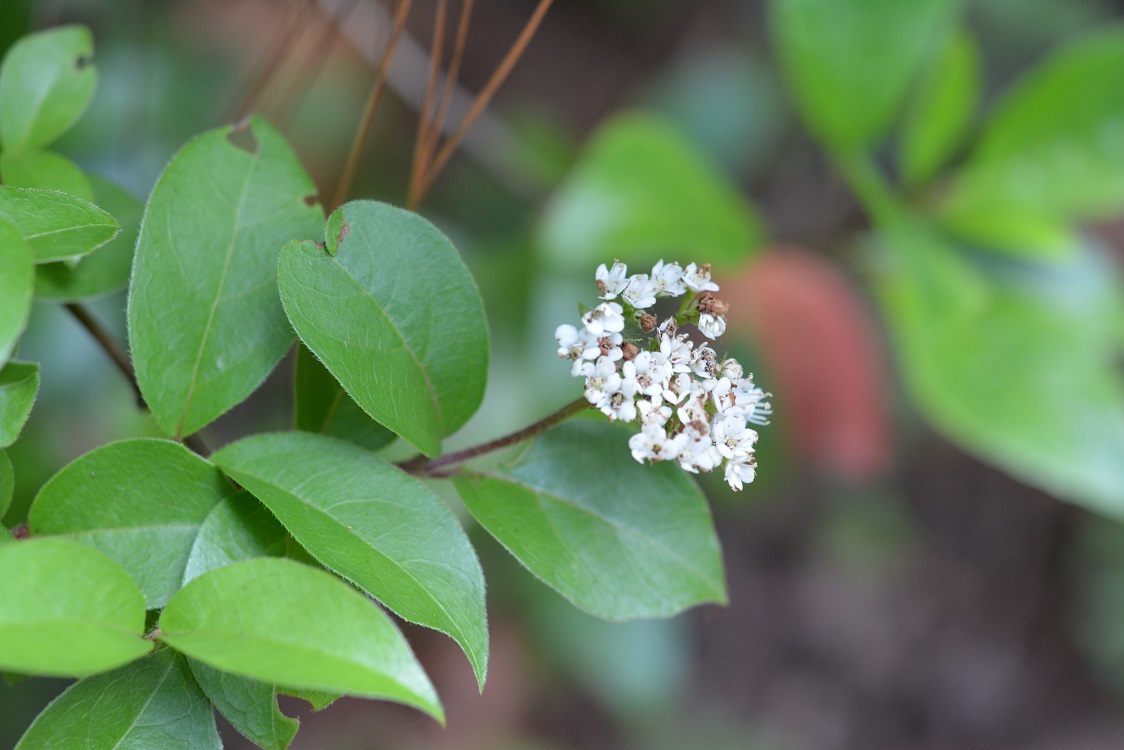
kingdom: Plantae
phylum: Tracheophyta
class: Magnoliopsida
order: Dipsacales
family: Viburnaceae
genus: Viburnum
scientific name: Viburnum lautum
